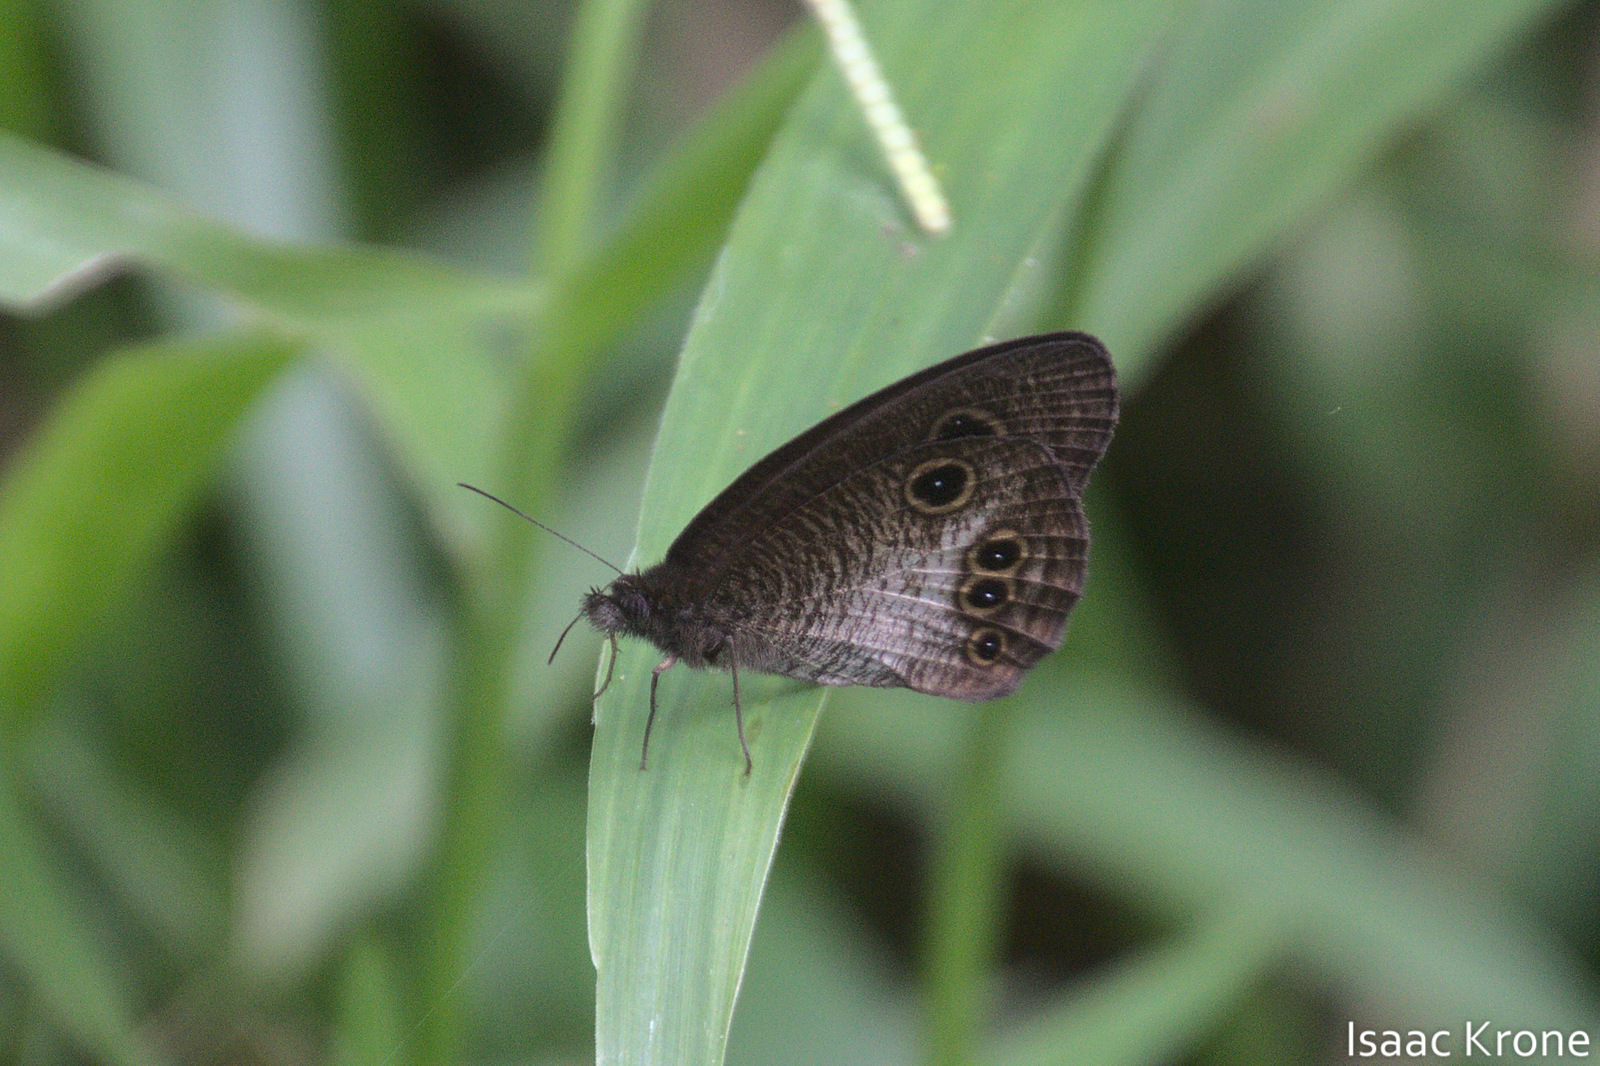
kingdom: Animalia
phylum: Arthropoda
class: Insecta
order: Lepidoptera
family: Nymphalidae
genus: Ypthima
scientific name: Ypthima gawalisi
